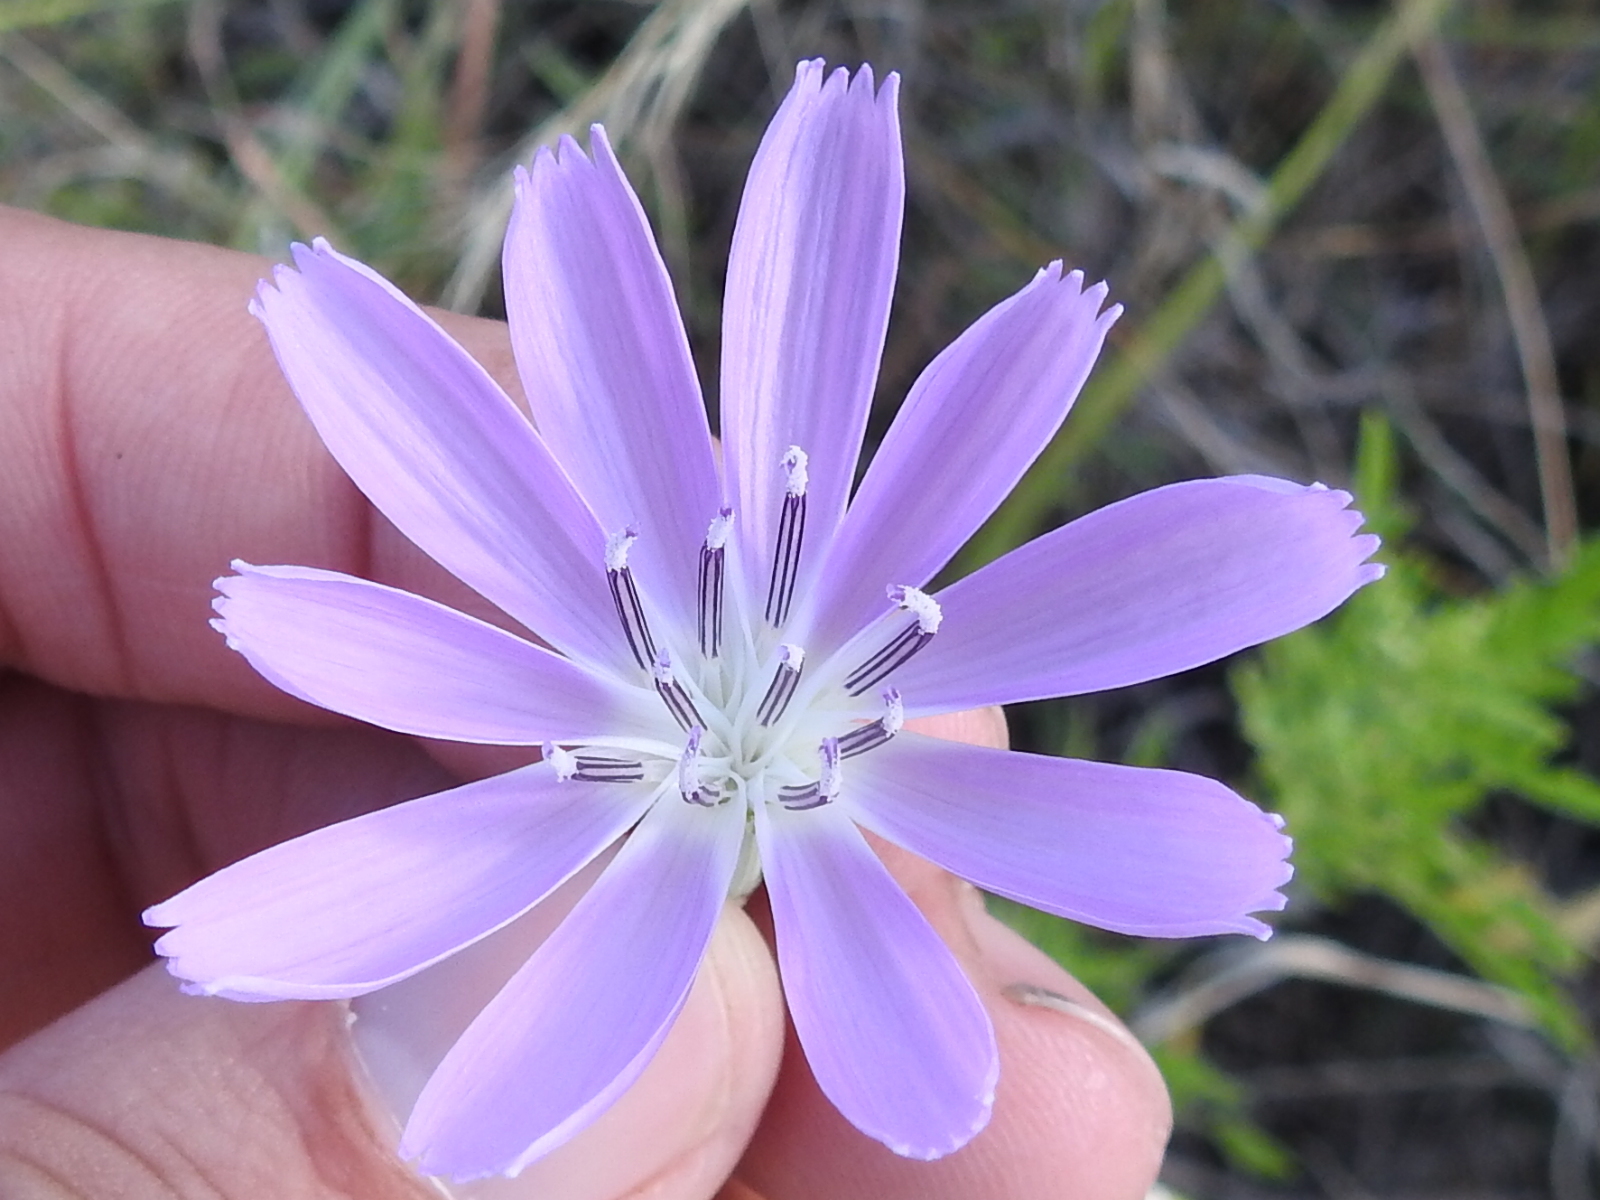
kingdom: Plantae
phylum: Tracheophyta
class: Magnoliopsida
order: Asterales
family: Asteraceae
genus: Lygodesmia
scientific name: Lygodesmia texana
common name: Texas skeleton-plant
